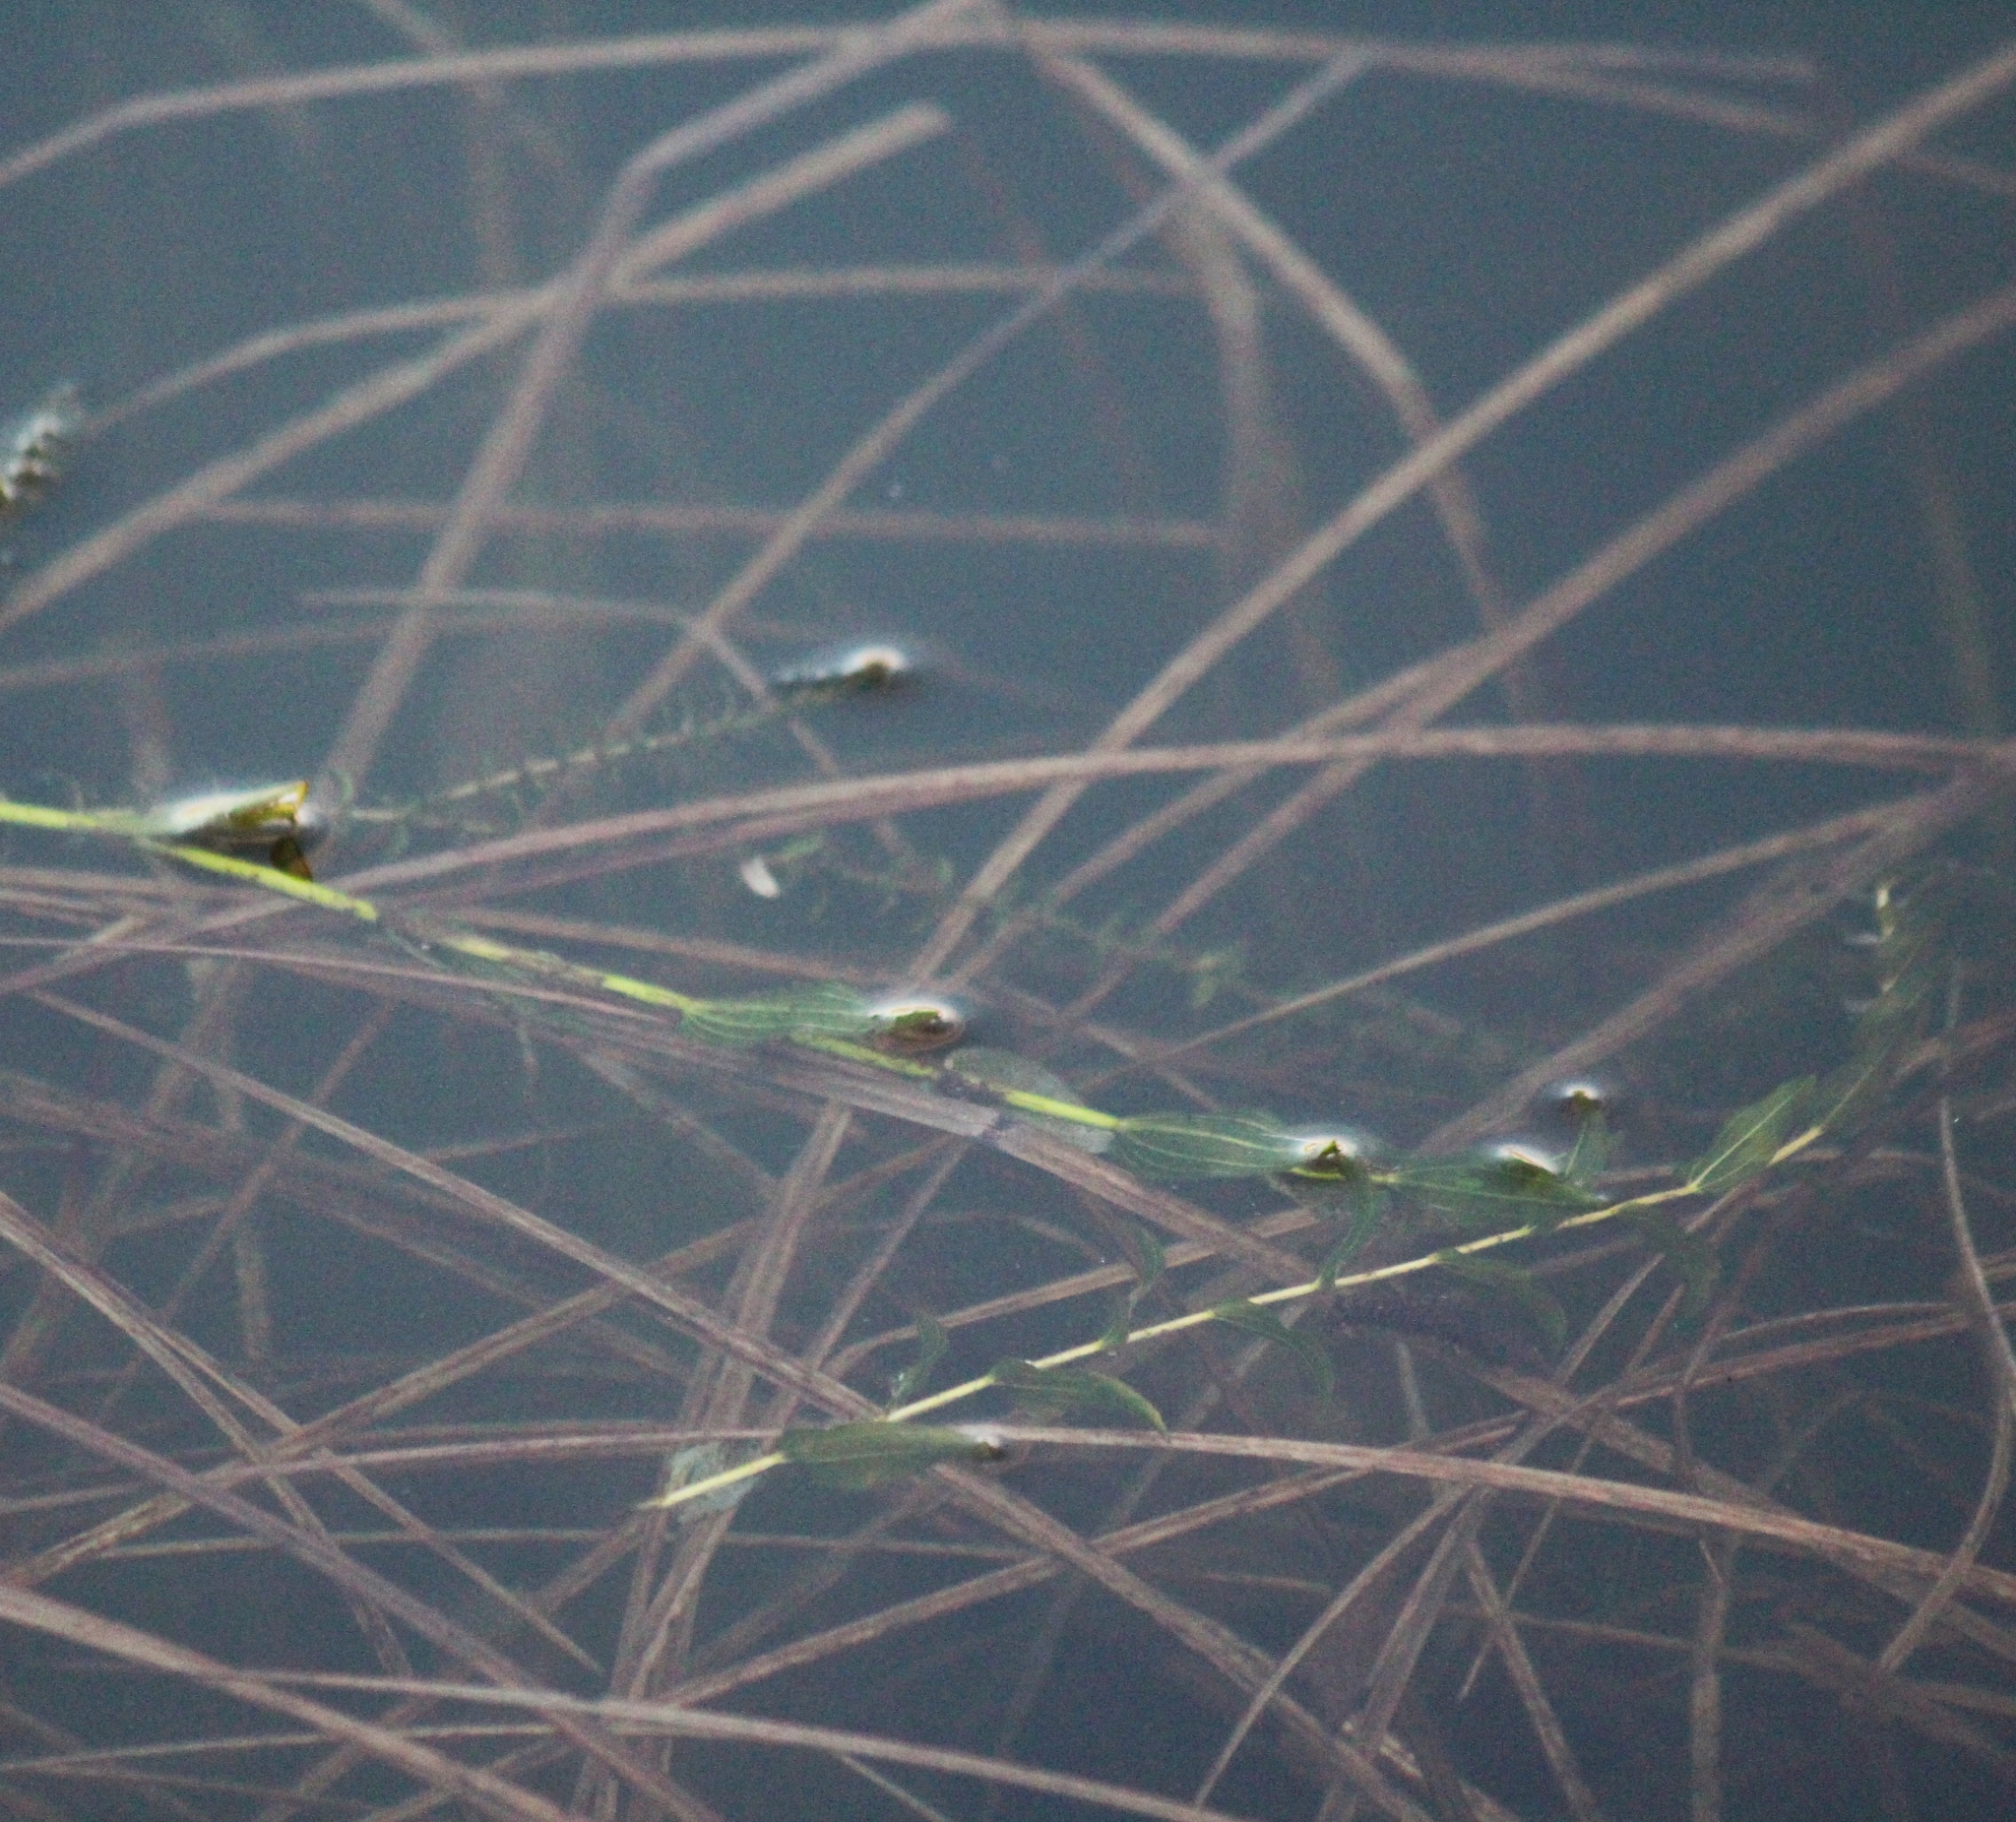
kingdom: Plantae
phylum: Tracheophyta
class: Liliopsida
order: Alismatales
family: Potamogetonaceae
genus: Potamogeton
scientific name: Potamogeton perfoliatus
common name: Perfoliate pondweed
